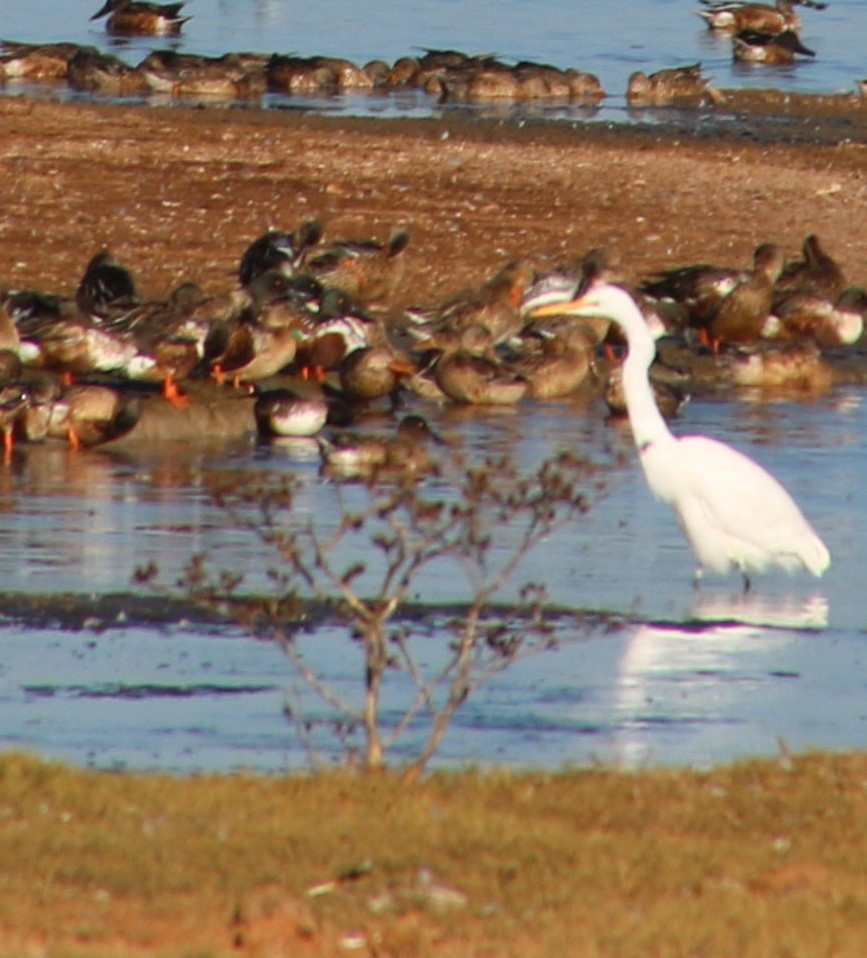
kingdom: Animalia
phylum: Chordata
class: Aves
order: Pelecaniformes
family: Ardeidae
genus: Ardea
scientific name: Ardea alba
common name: Great egret
